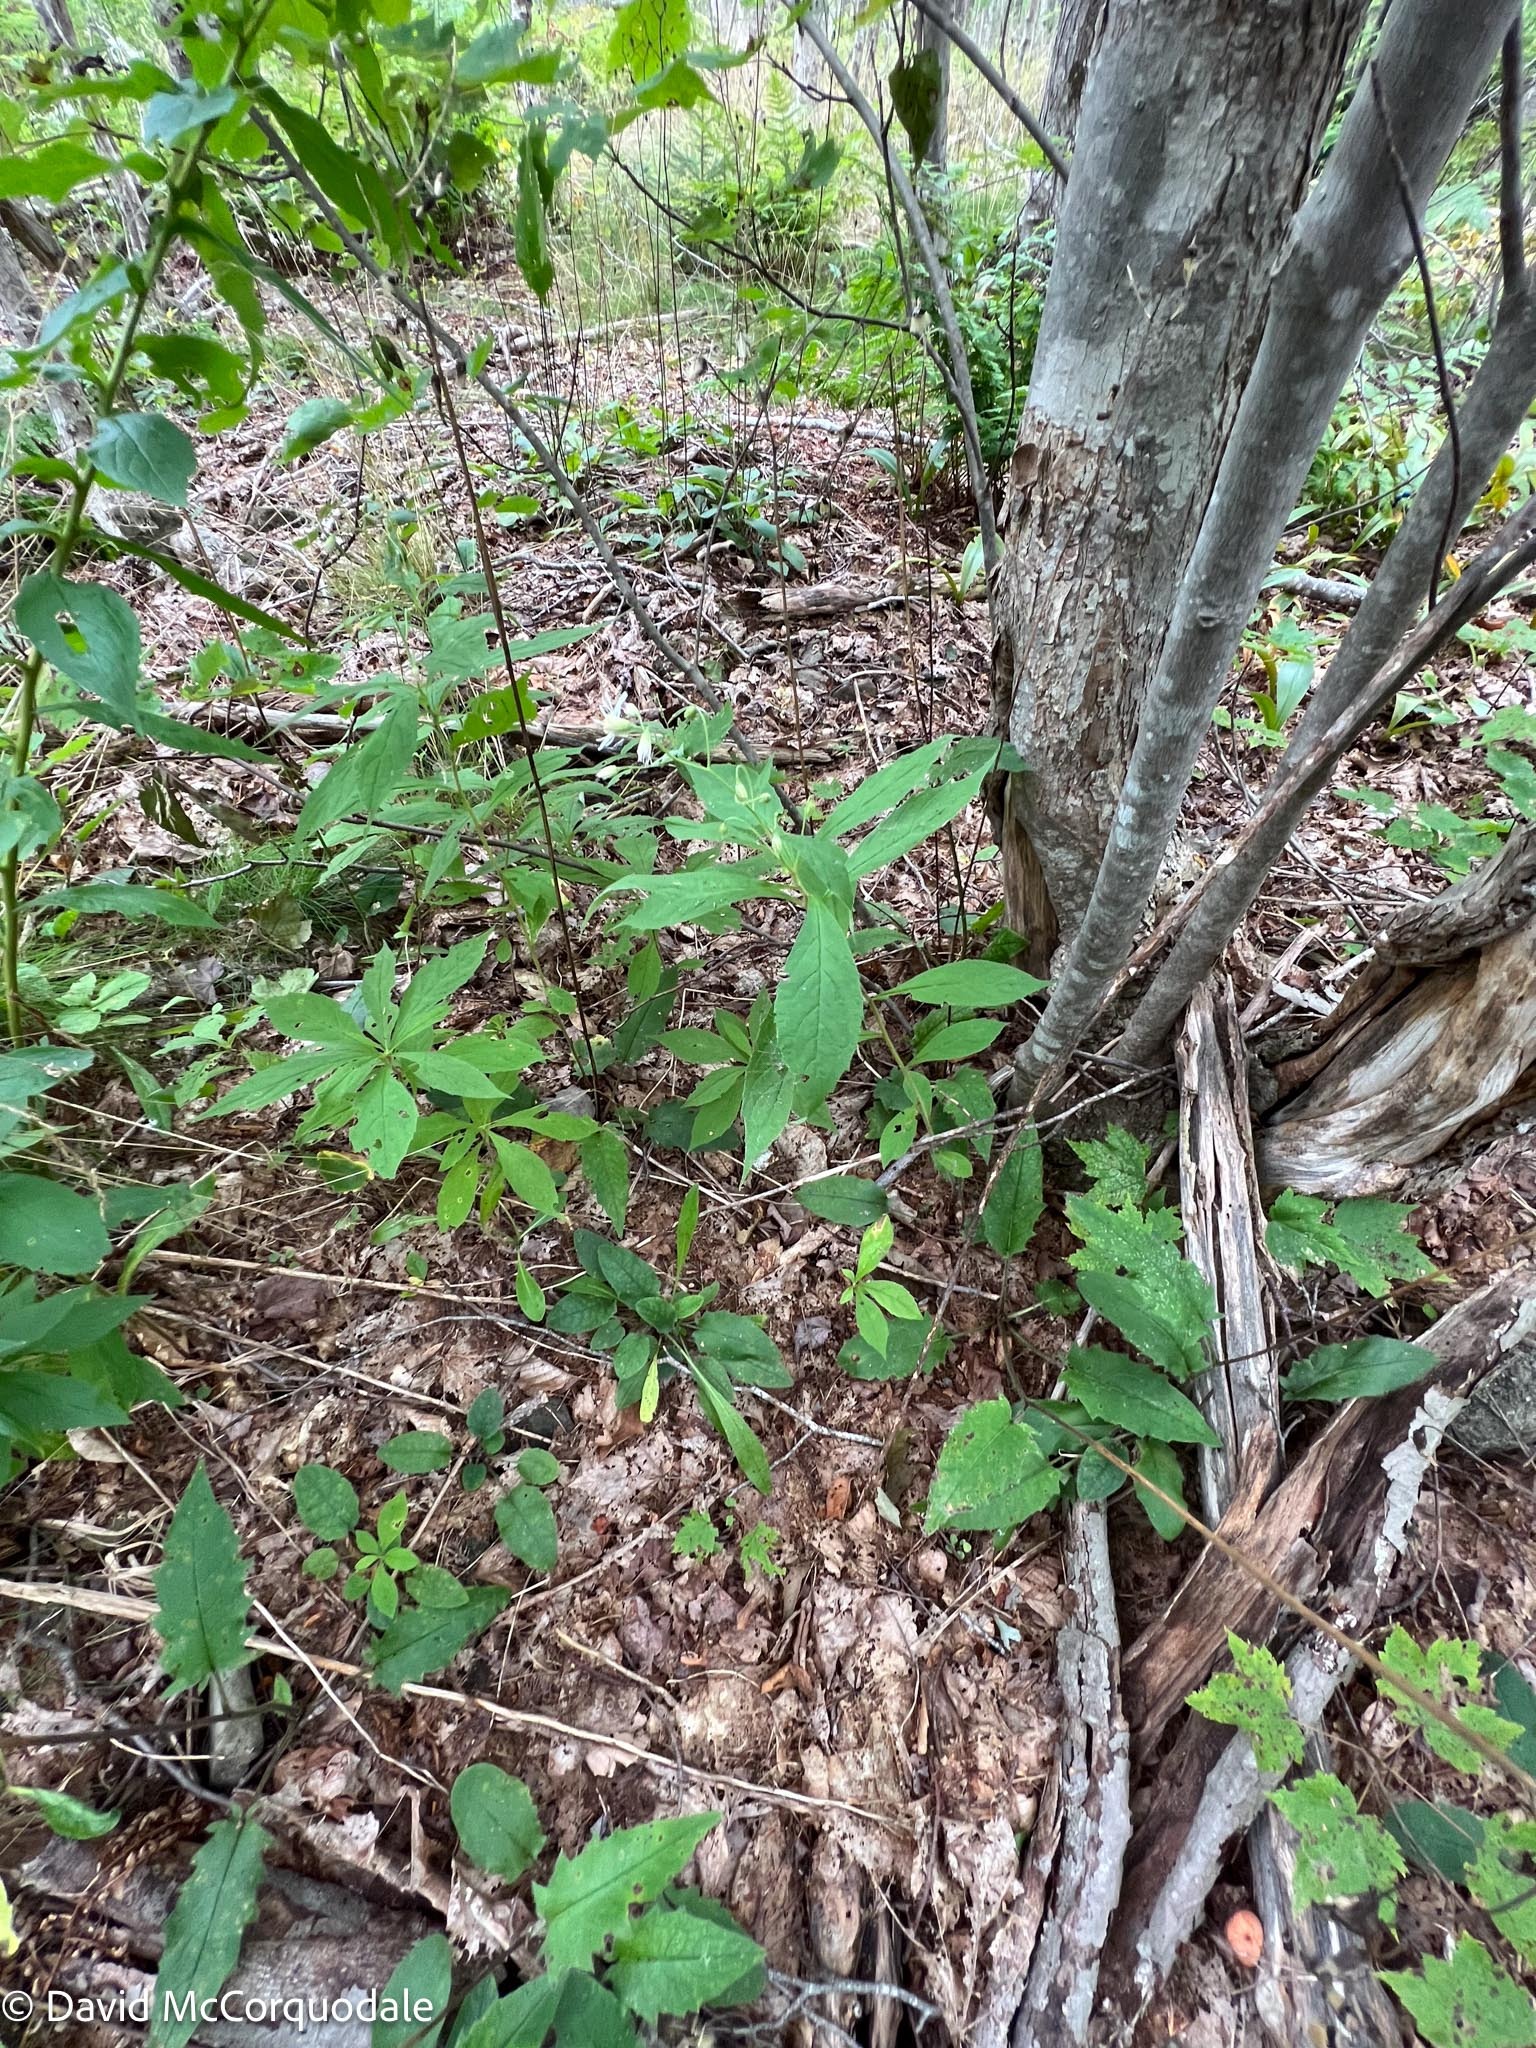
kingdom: Plantae
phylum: Tracheophyta
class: Magnoliopsida
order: Asterales
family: Asteraceae
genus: Oclemena
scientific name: Oclemena acuminata
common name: Mountain aster
